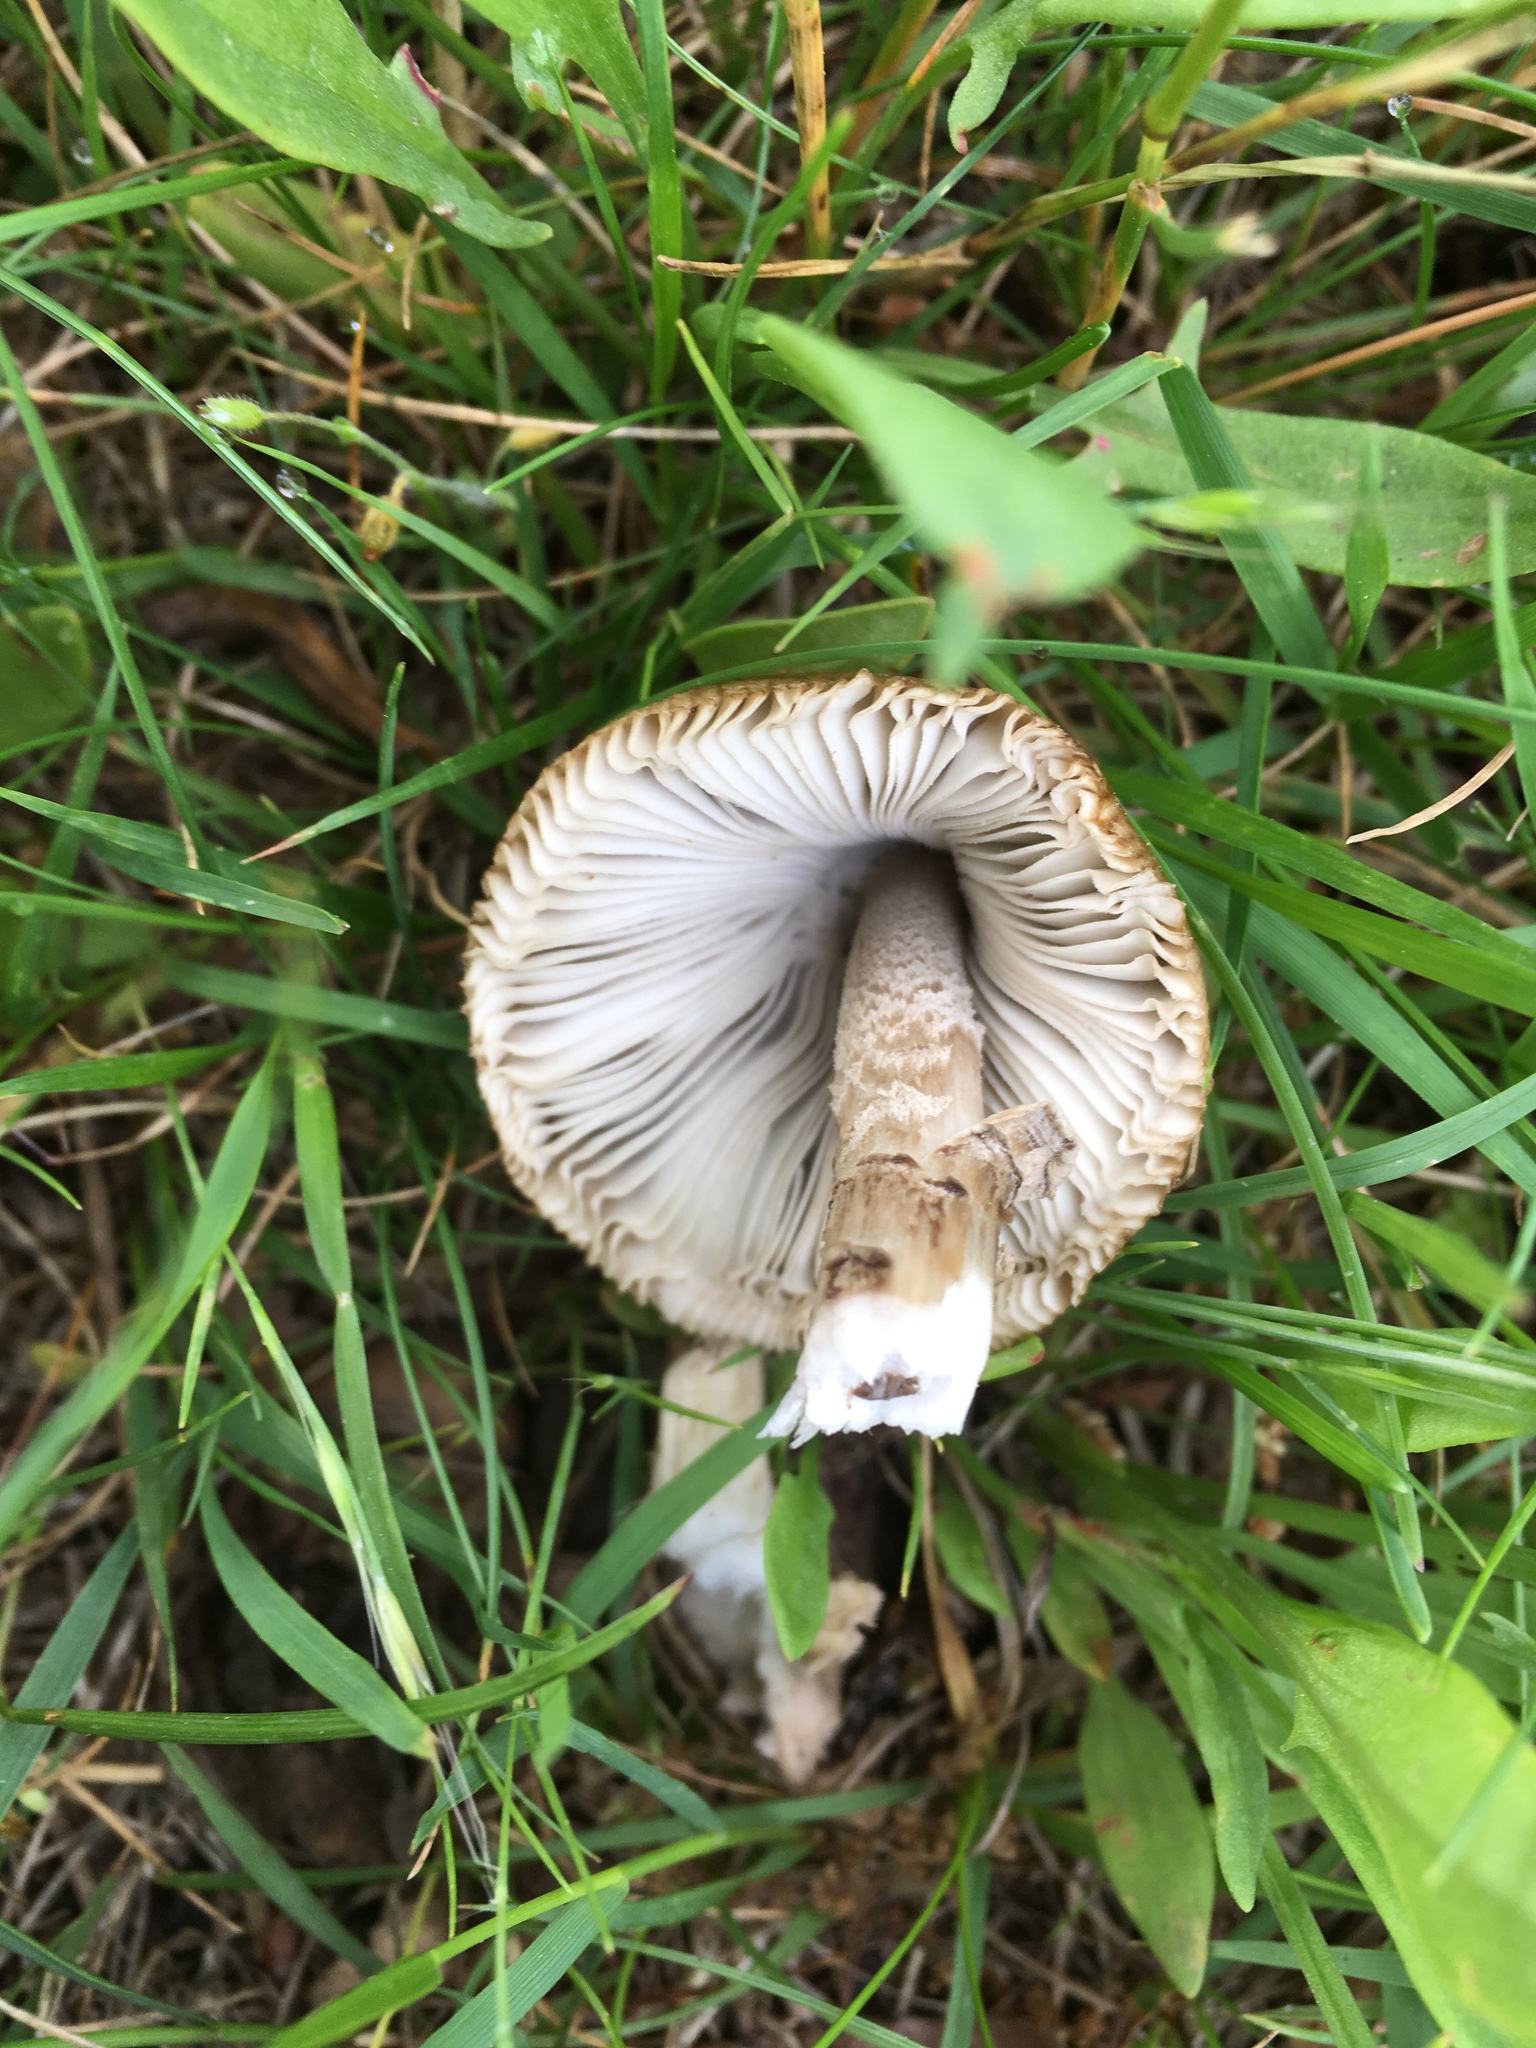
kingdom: Fungi
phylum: Basidiomycota
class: Agaricomycetes
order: Agaricales
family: Amanitaceae
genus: Amanita
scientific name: Amanita vaginata
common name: Grisette
